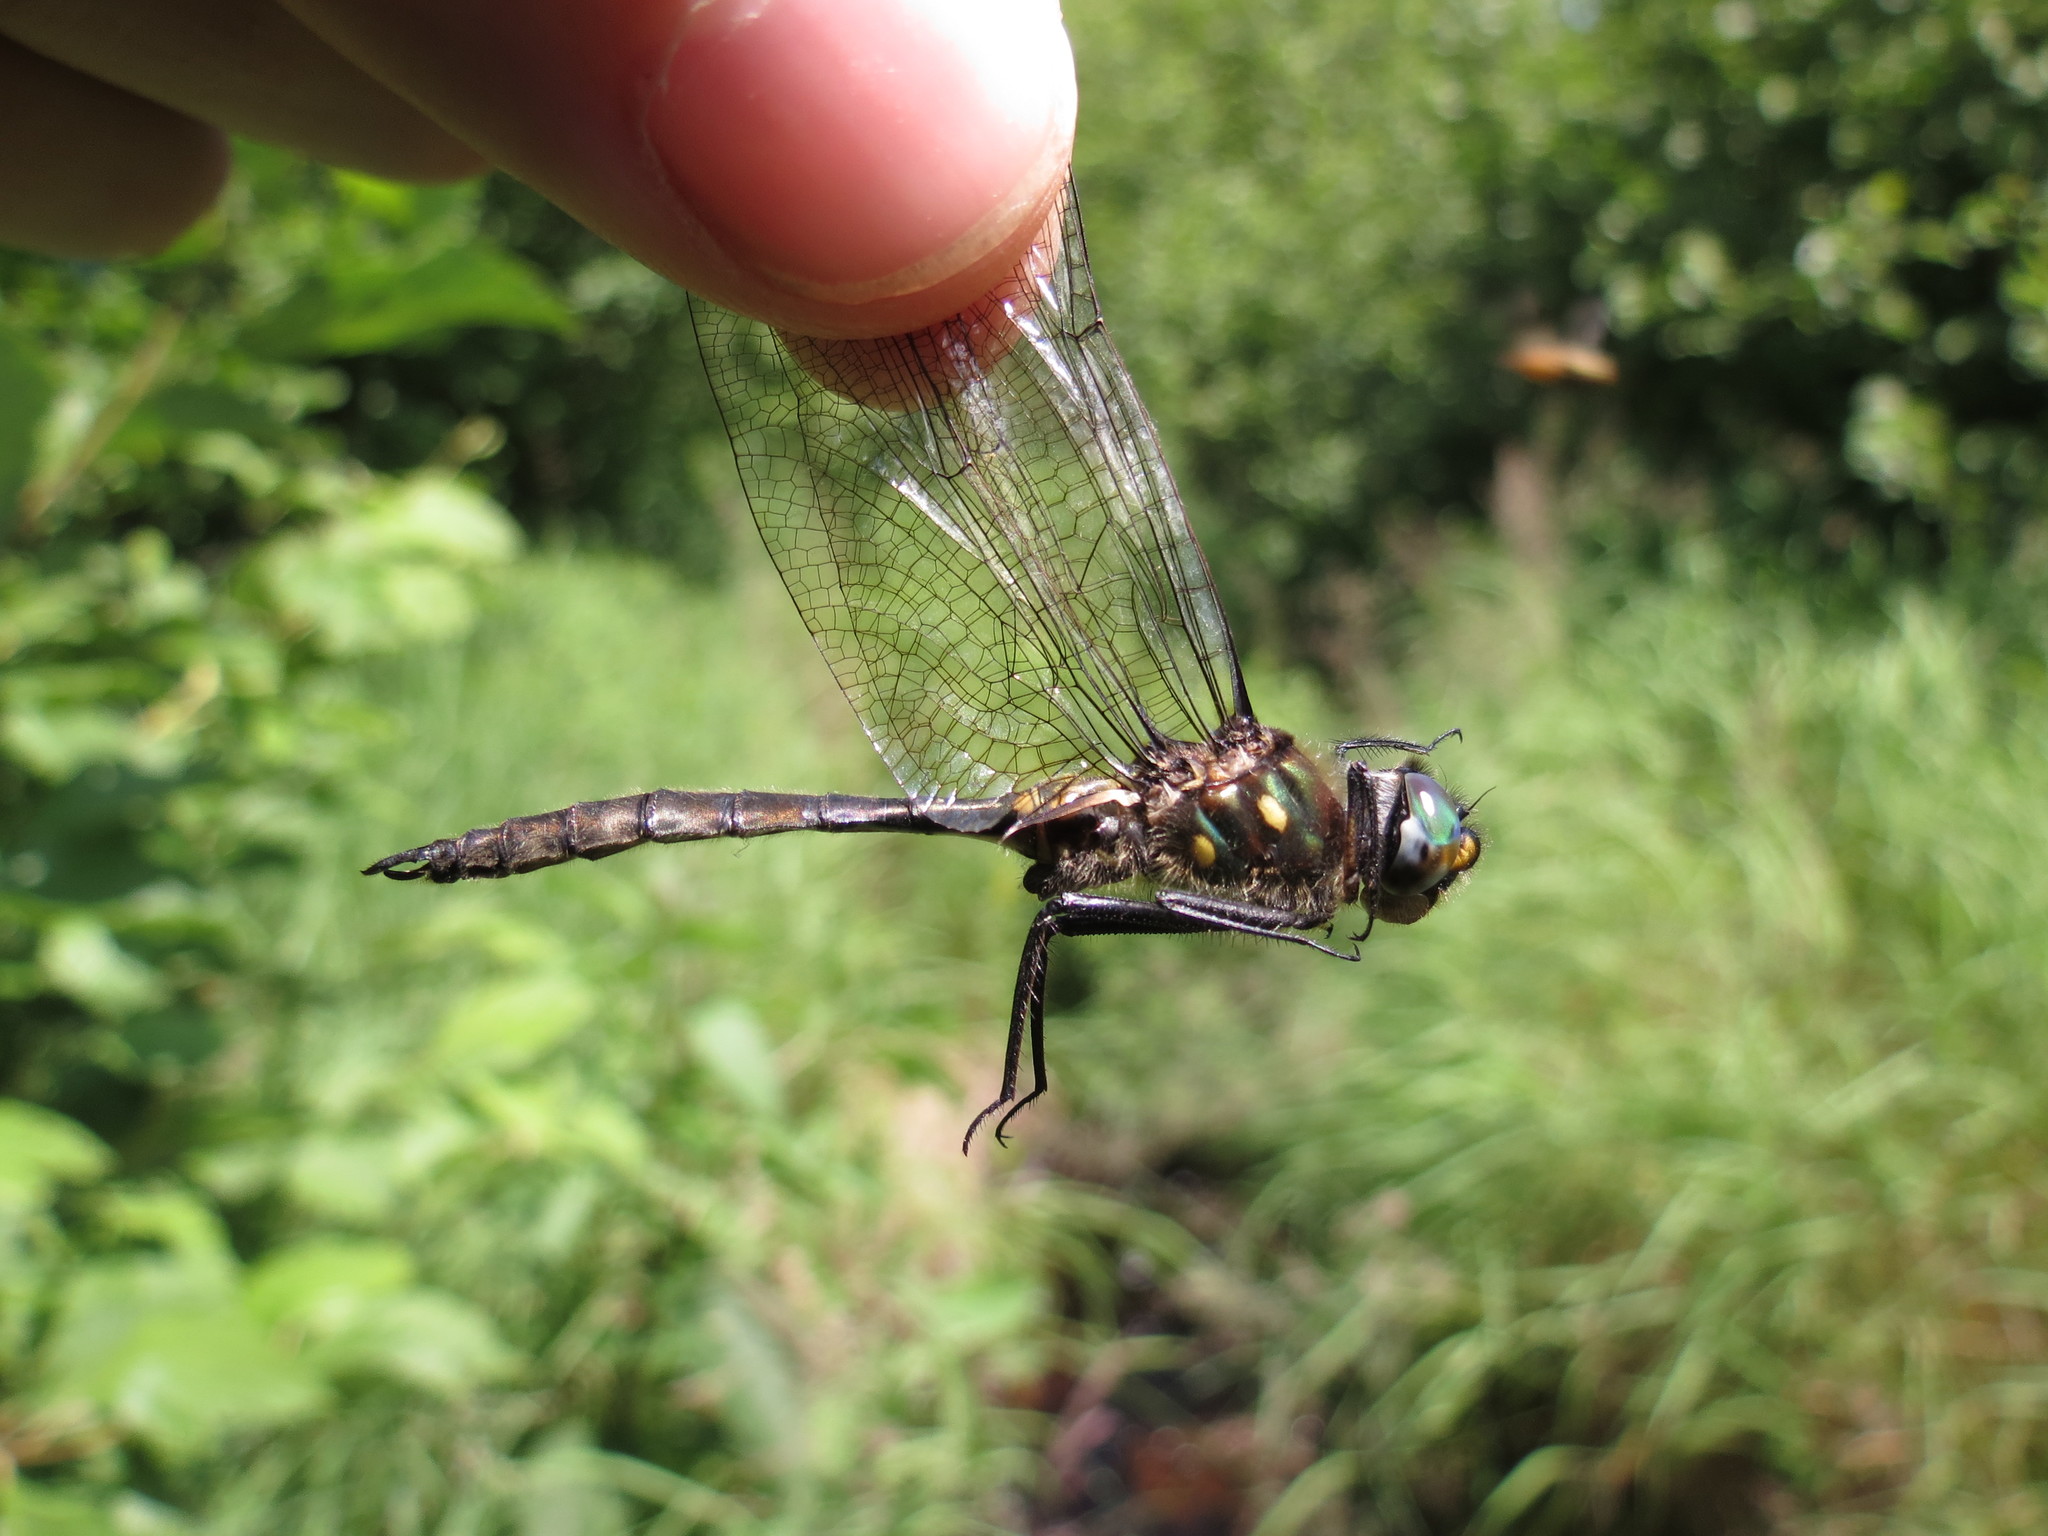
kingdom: Animalia
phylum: Arthropoda
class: Insecta
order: Odonata
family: Corduliidae
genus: Somatochlora
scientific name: Somatochlora minor
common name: Ocellated emerald
